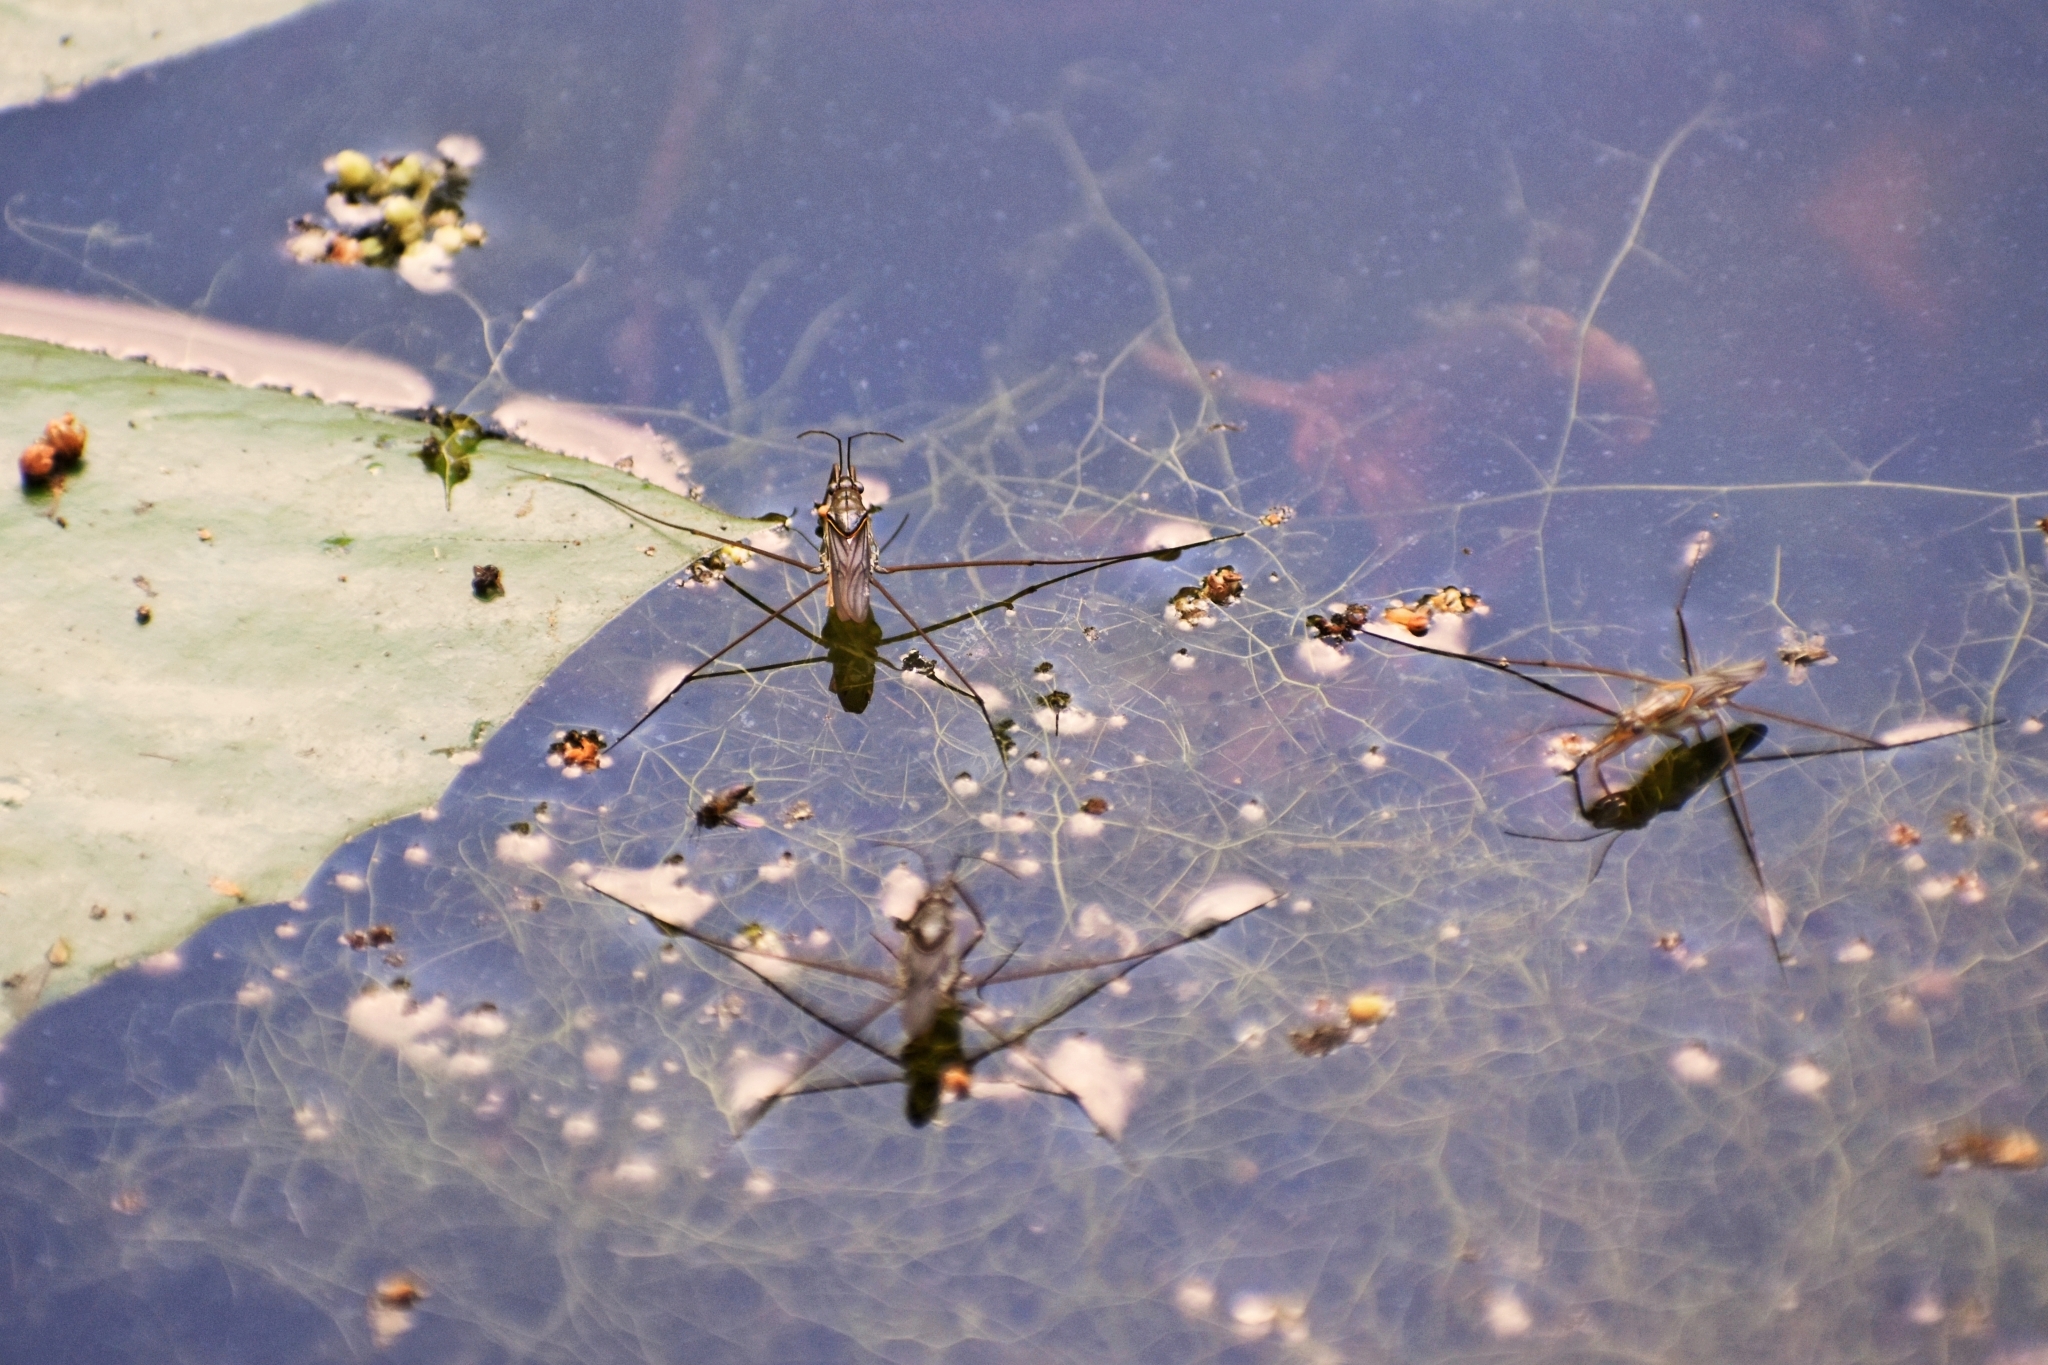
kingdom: Animalia
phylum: Arthropoda
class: Insecta
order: Hemiptera
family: Gerridae
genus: Limnogonus
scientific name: Limnogonus
